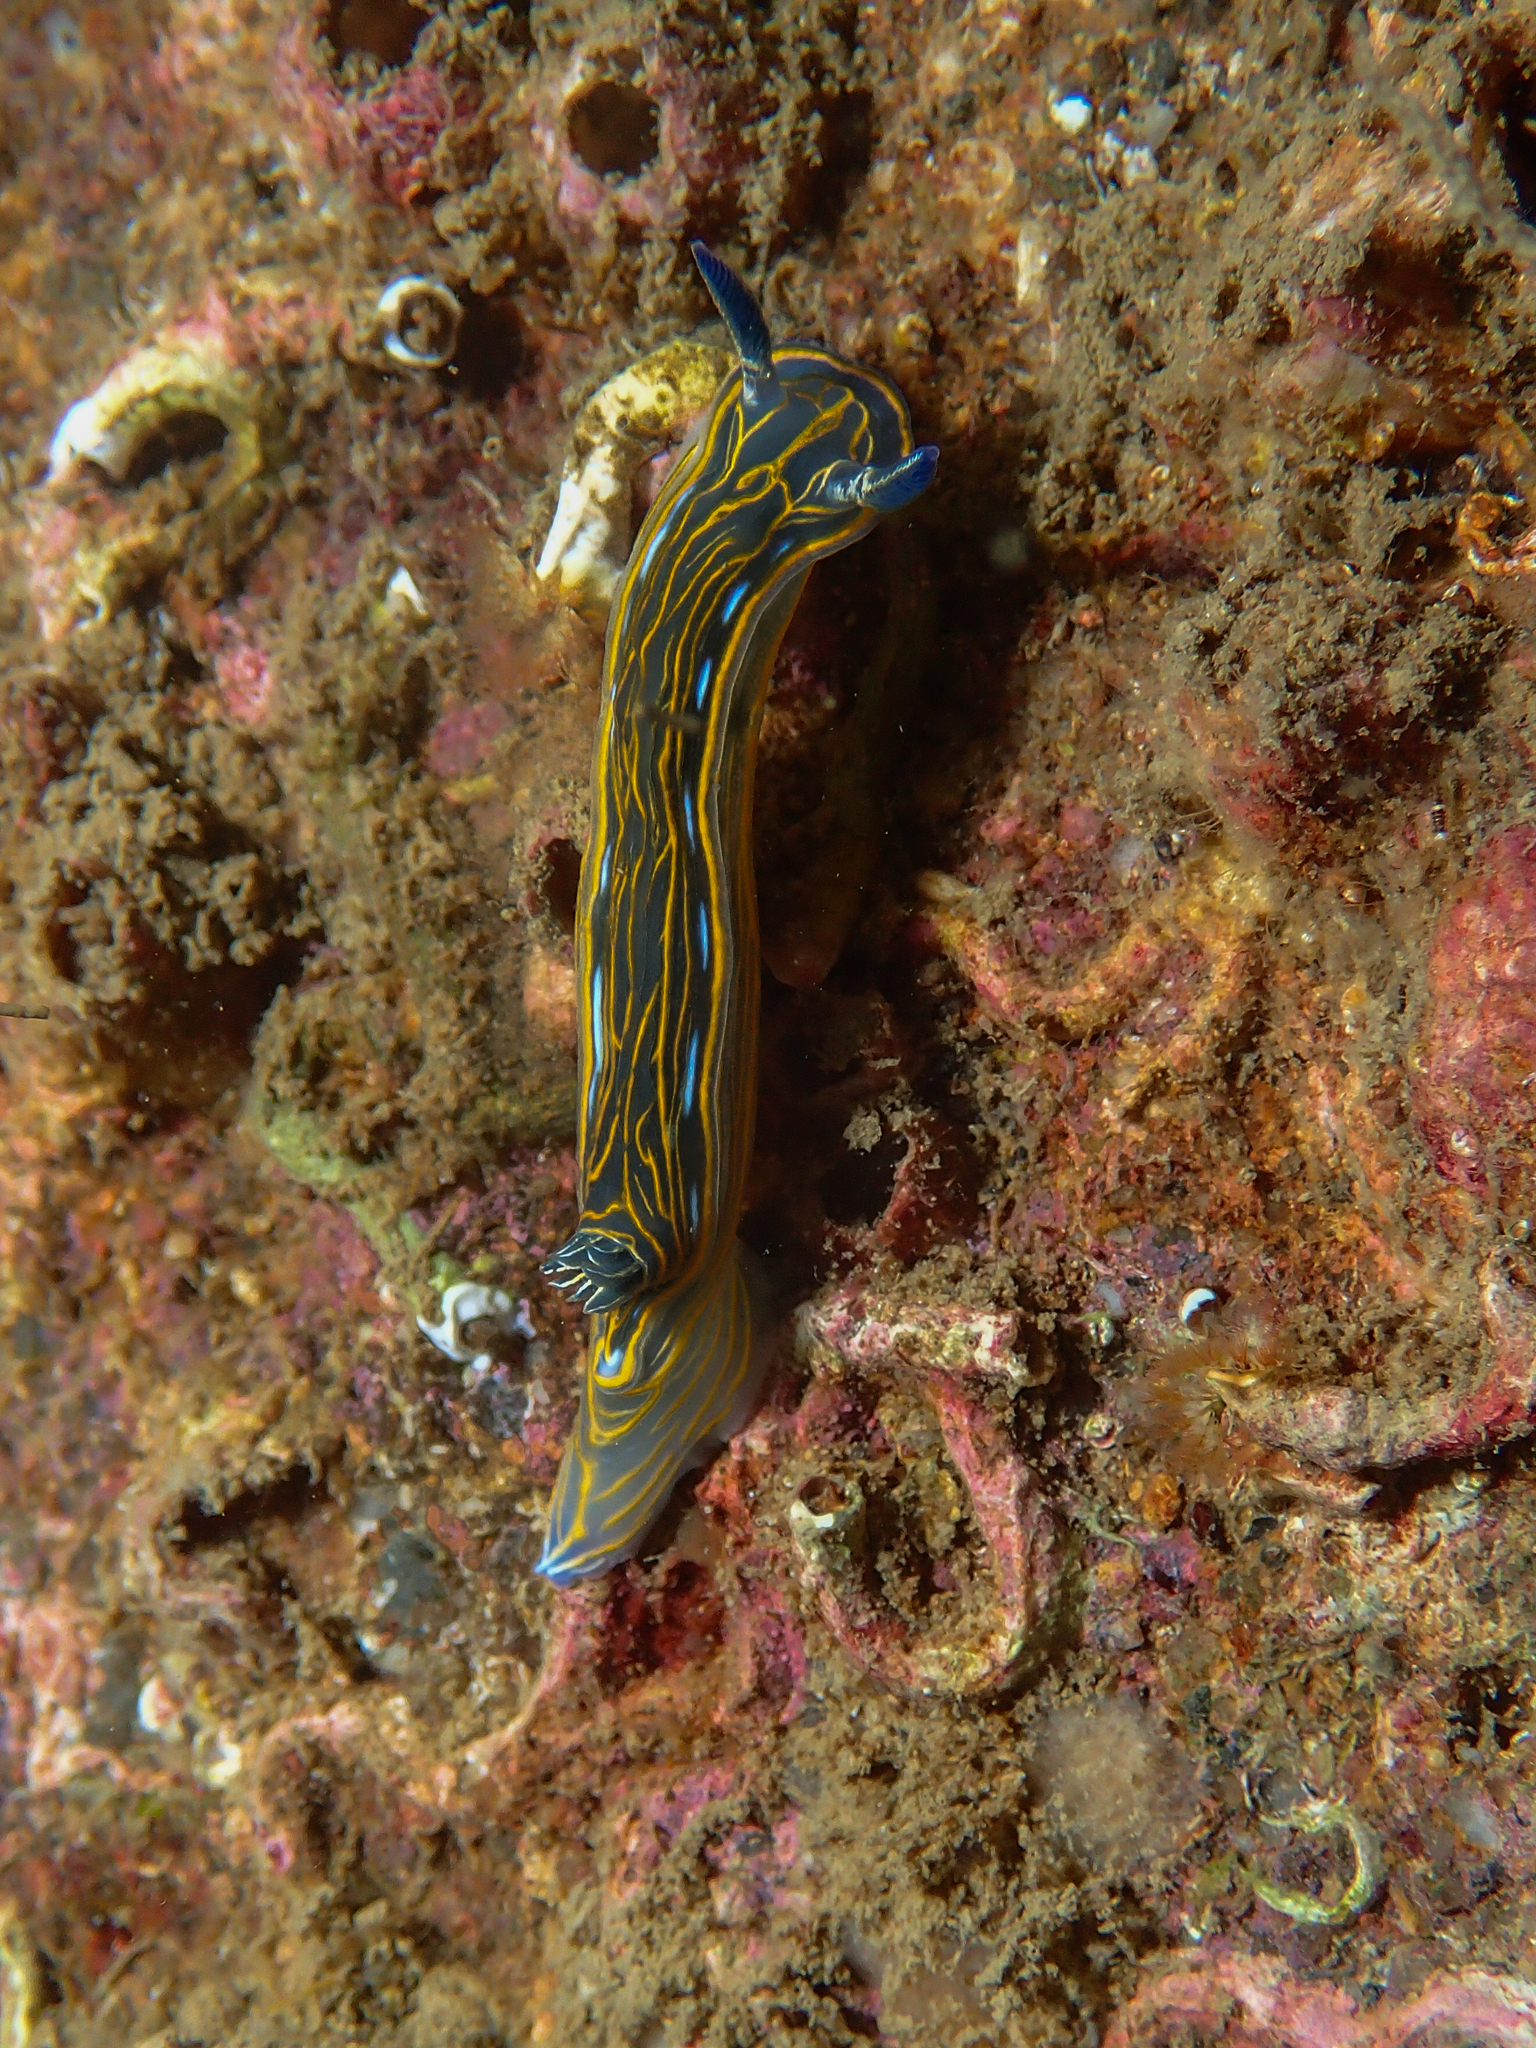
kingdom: Animalia
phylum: Mollusca
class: Gastropoda
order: Nudibranchia
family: Chromodorididae
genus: Felimare
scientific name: Felimare villafranca
